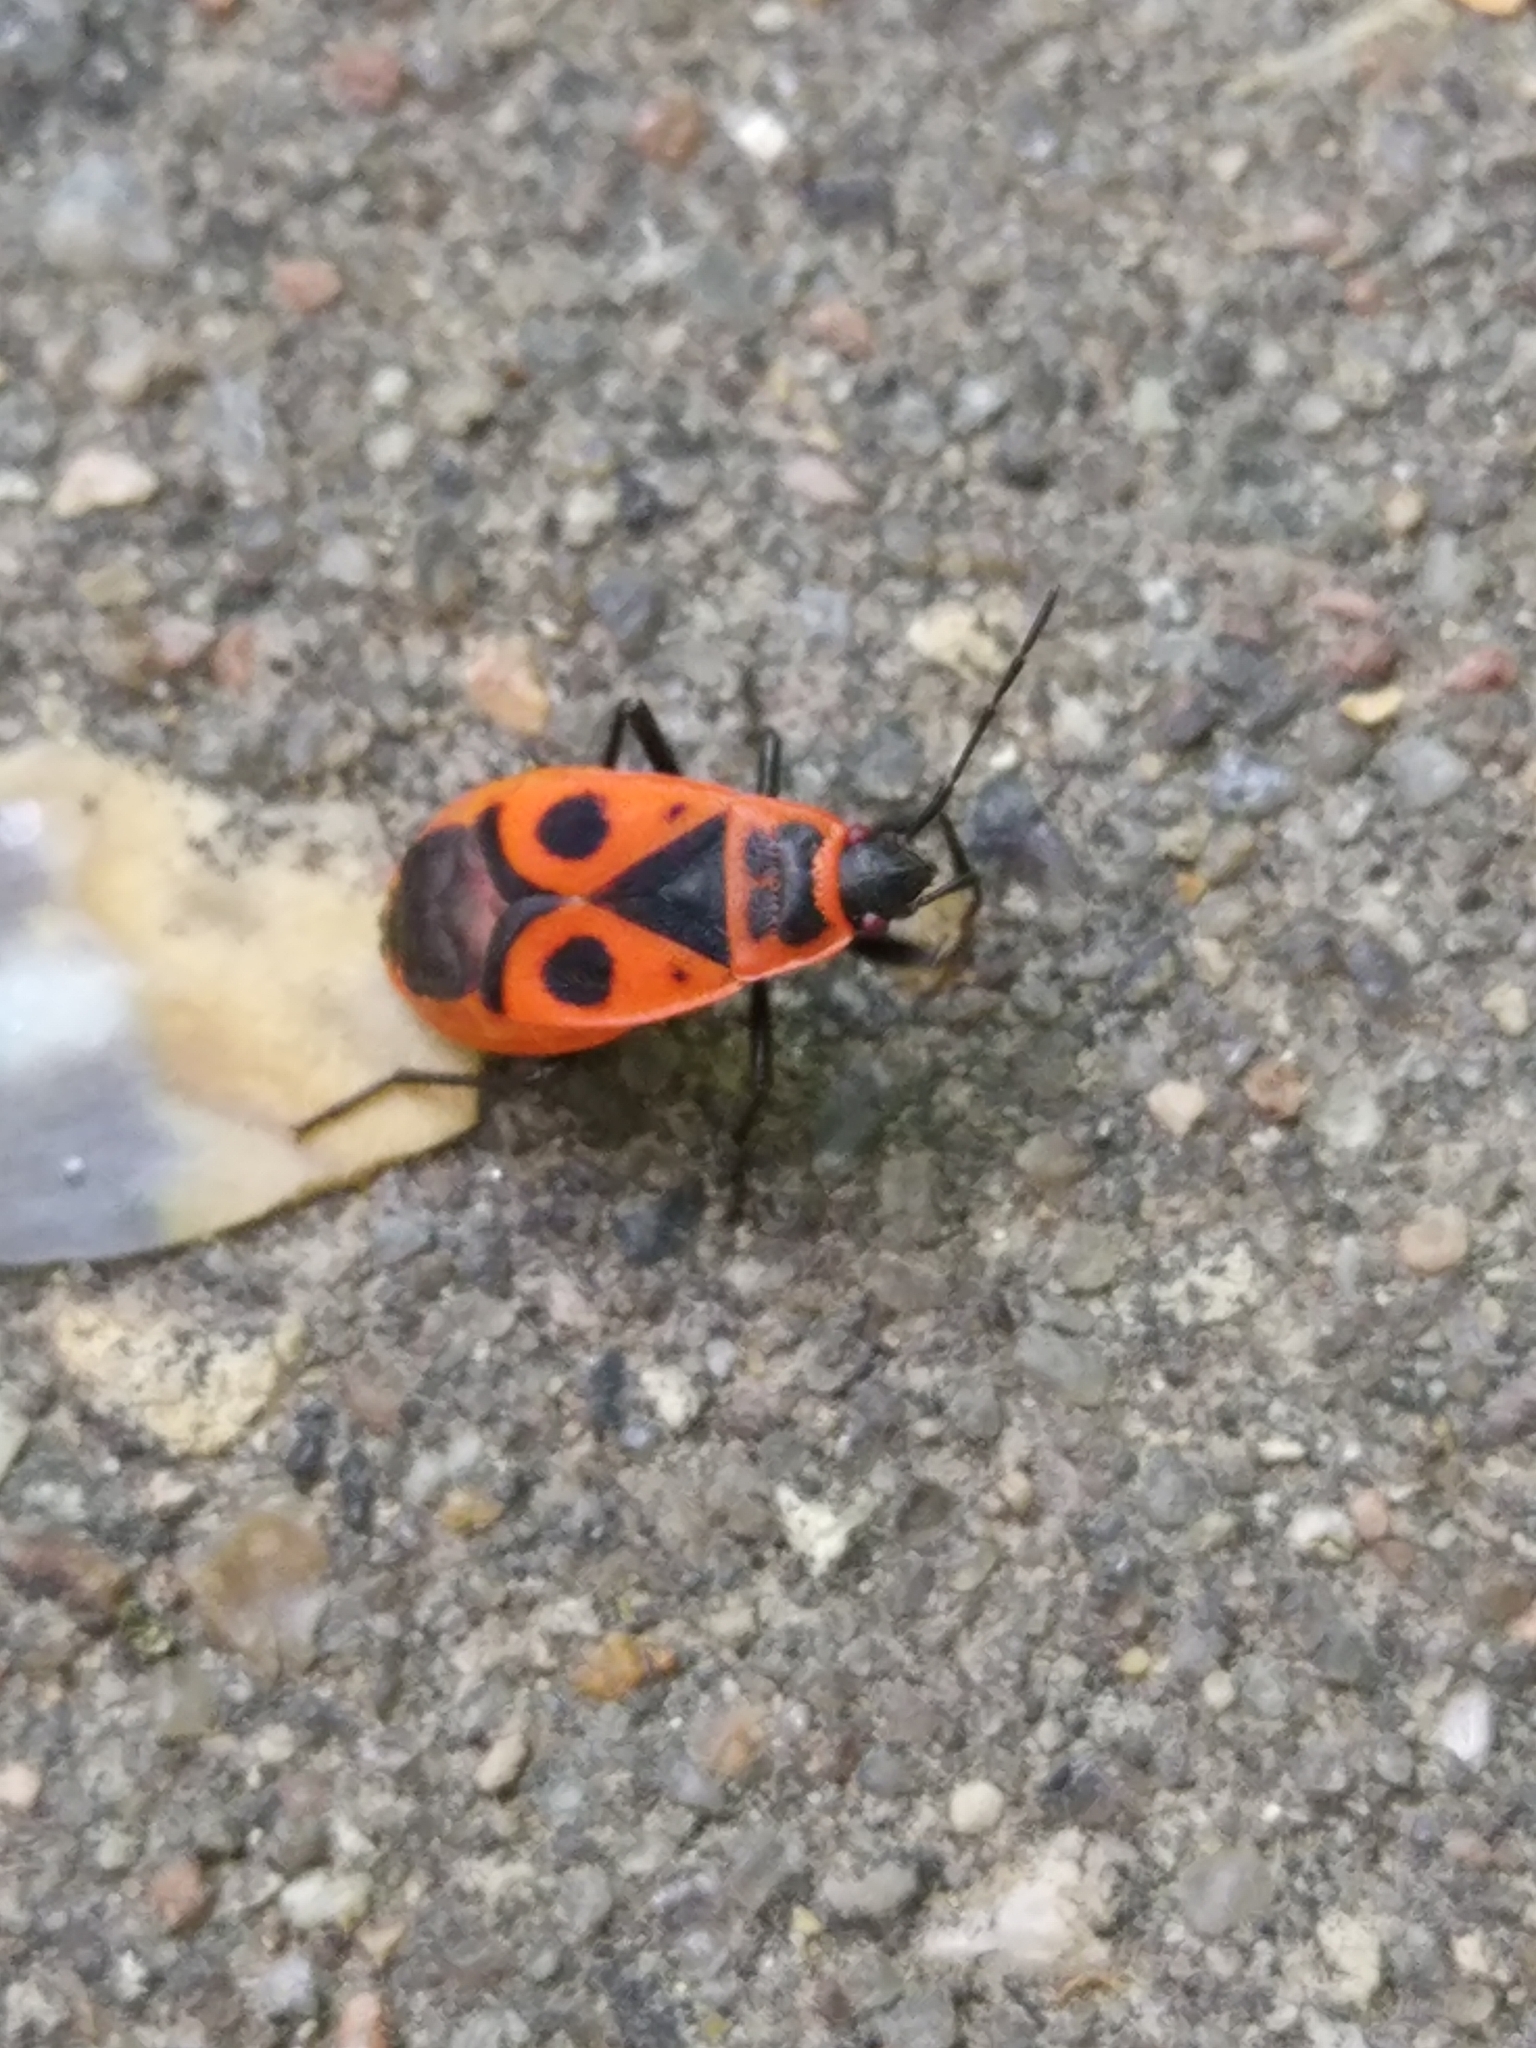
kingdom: Animalia
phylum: Arthropoda
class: Insecta
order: Hemiptera
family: Pyrrhocoridae
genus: Pyrrhocoris
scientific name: Pyrrhocoris apterus
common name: Firebug
